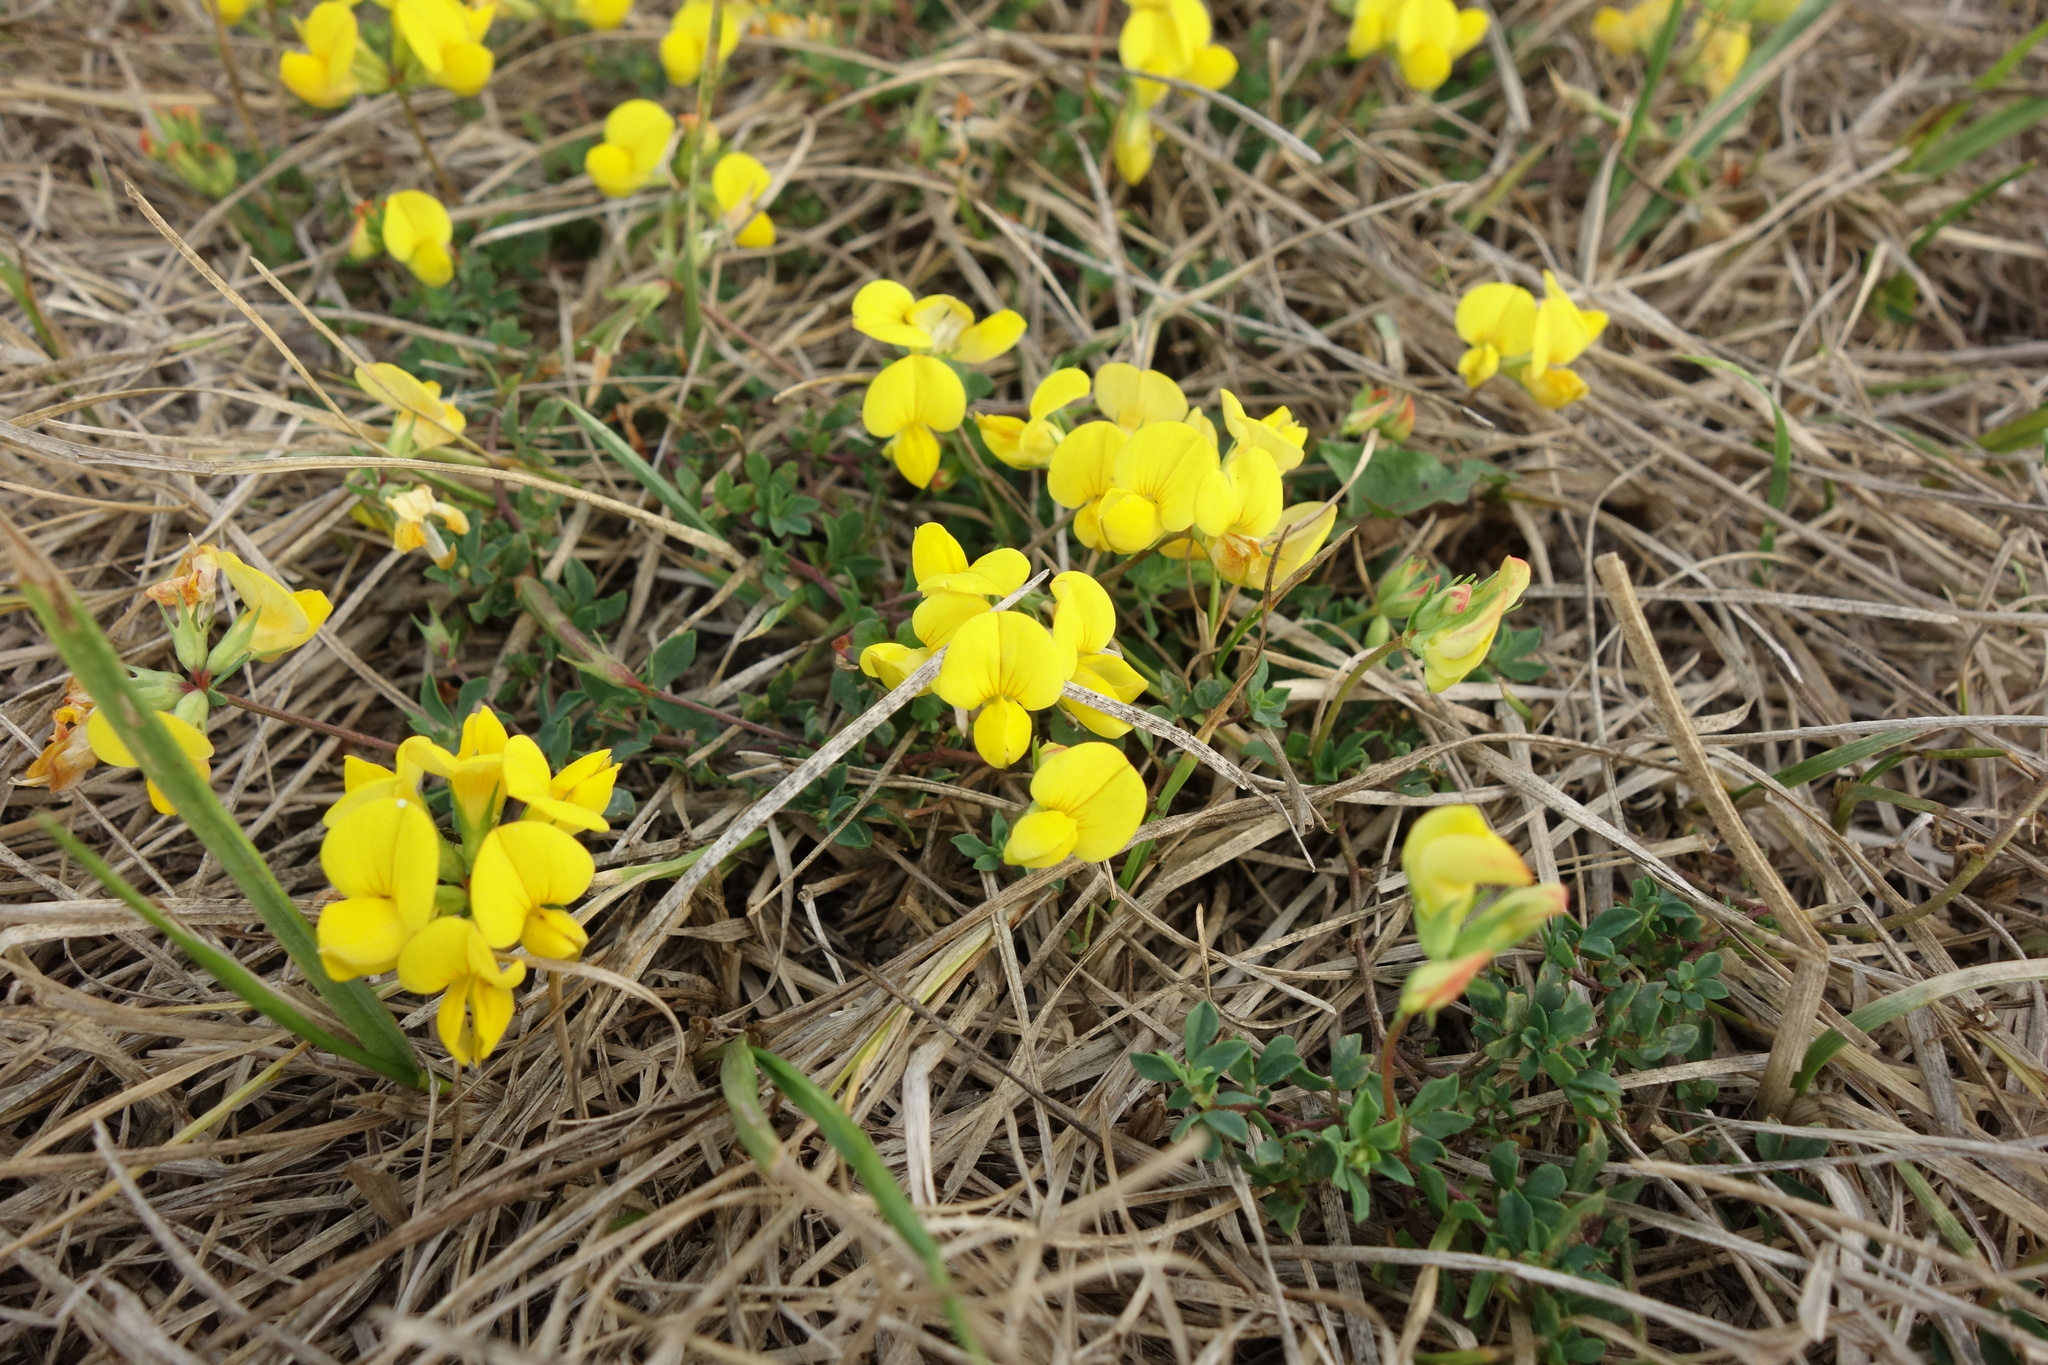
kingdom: Plantae
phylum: Tracheophyta
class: Magnoliopsida
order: Fabales
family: Fabaceae
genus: Lotus
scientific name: Lotus corniculatus
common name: Common bird's-foot-trefoil
